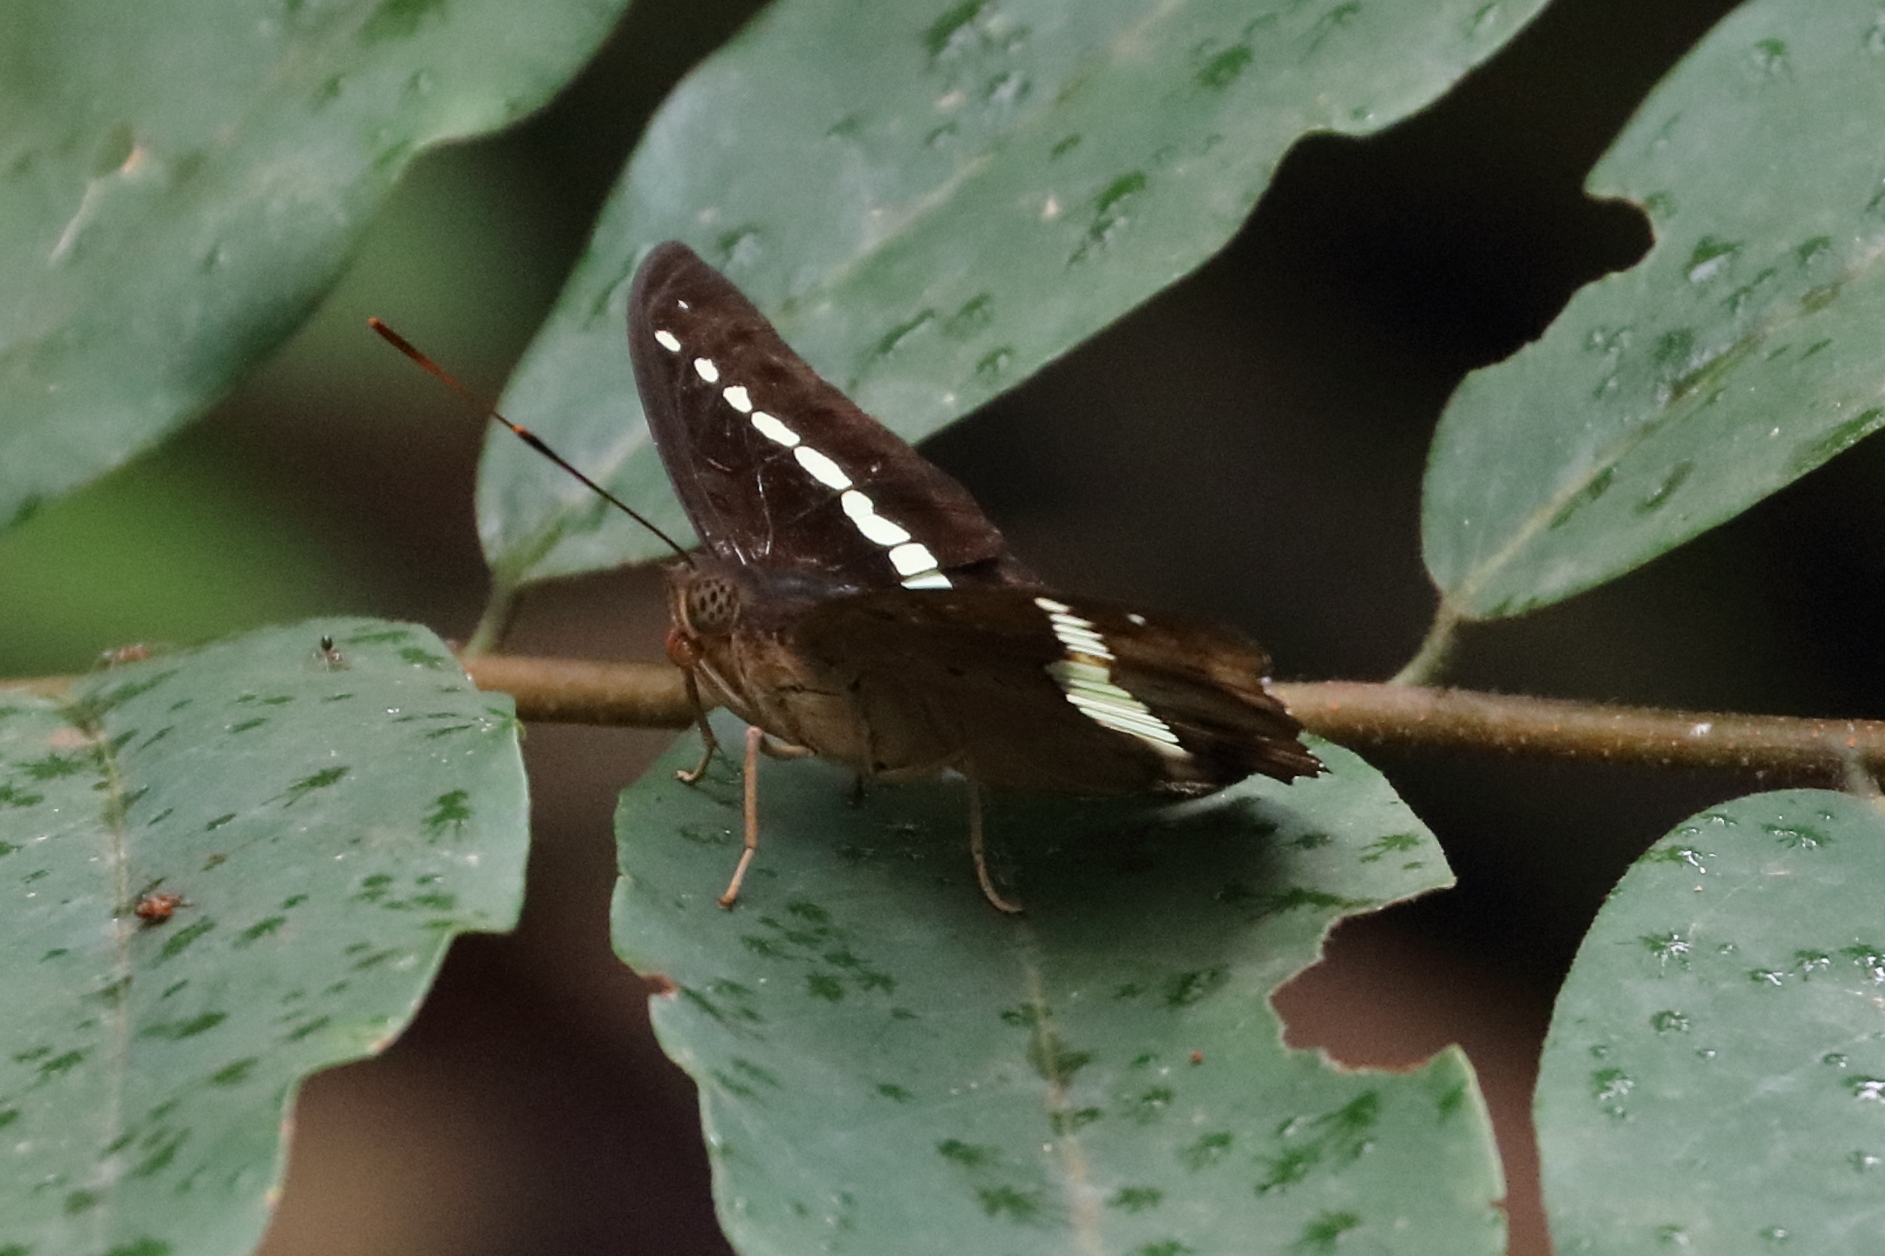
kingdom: Animalia
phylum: Arthropoda
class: Insecta
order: Lepidoptera
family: Nymphalidae
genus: Euthalia
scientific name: Euthalia Bassarona teuta
